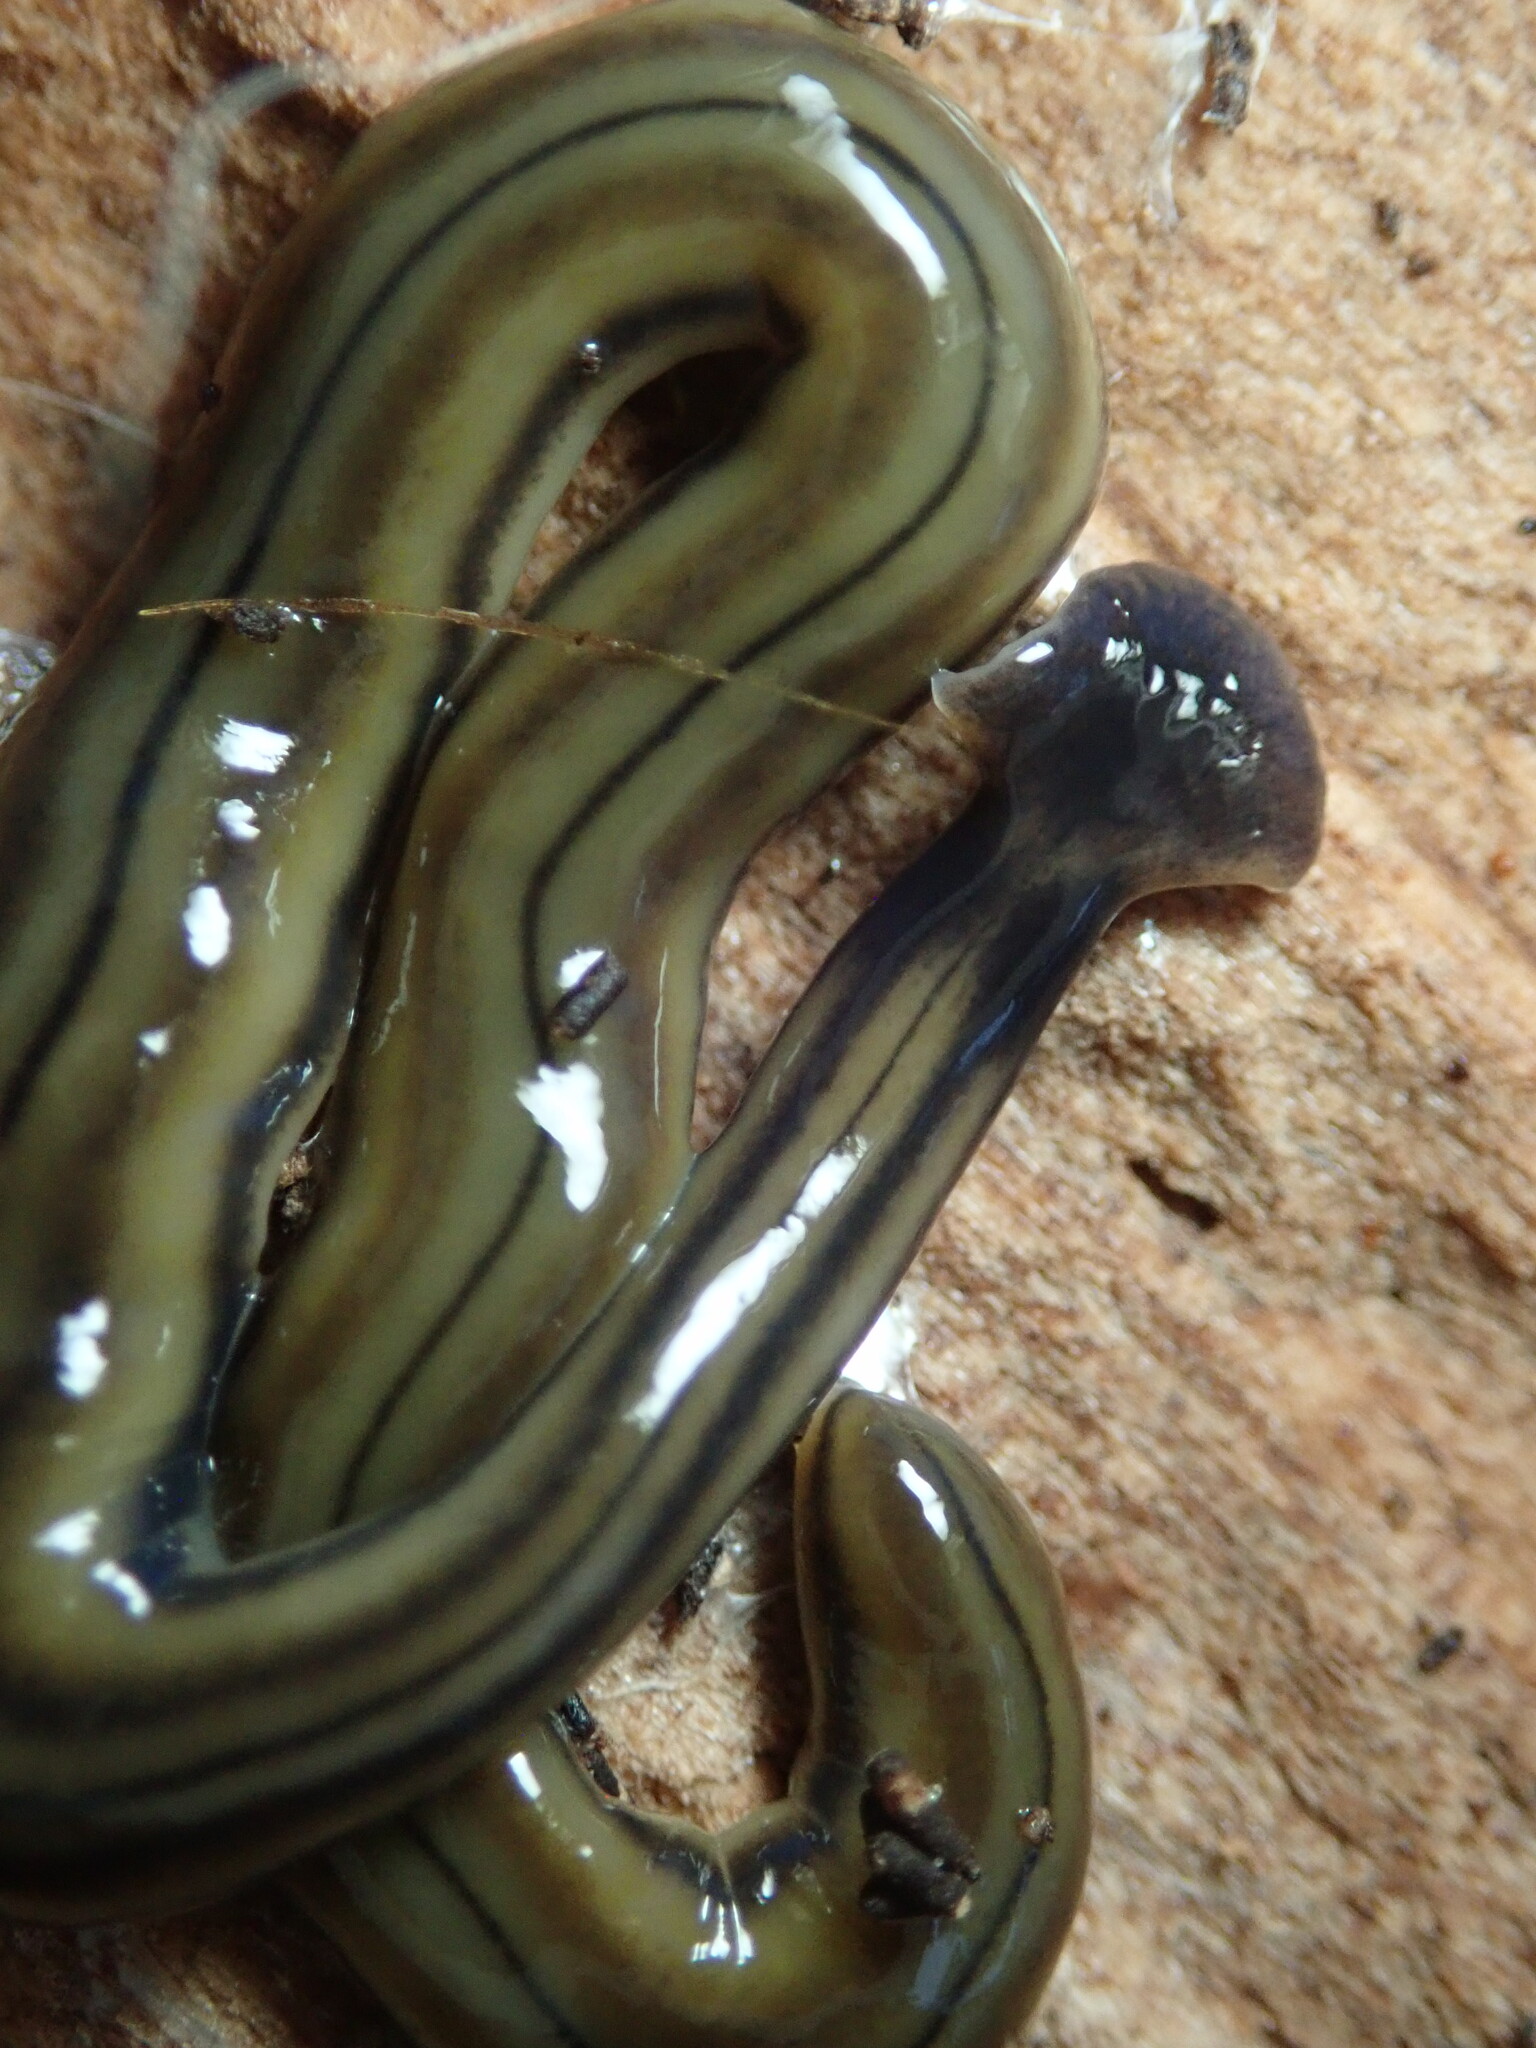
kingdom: Animalia
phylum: Platyhelminthes
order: Tricladida
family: Geoplanidae
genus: Bipalium
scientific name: Bipalium kewense
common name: Hammerhead flatworm
